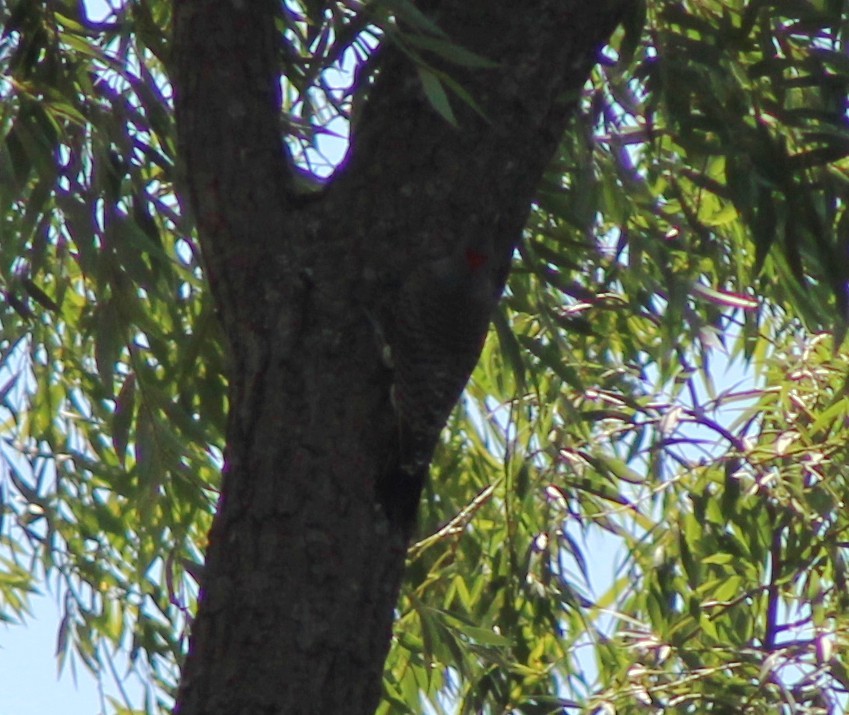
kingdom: Animalia
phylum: Chordata
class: Aves
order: Piciformes
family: Picidae
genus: Colaptes
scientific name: Colaptes auratus
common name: Northern flicker
